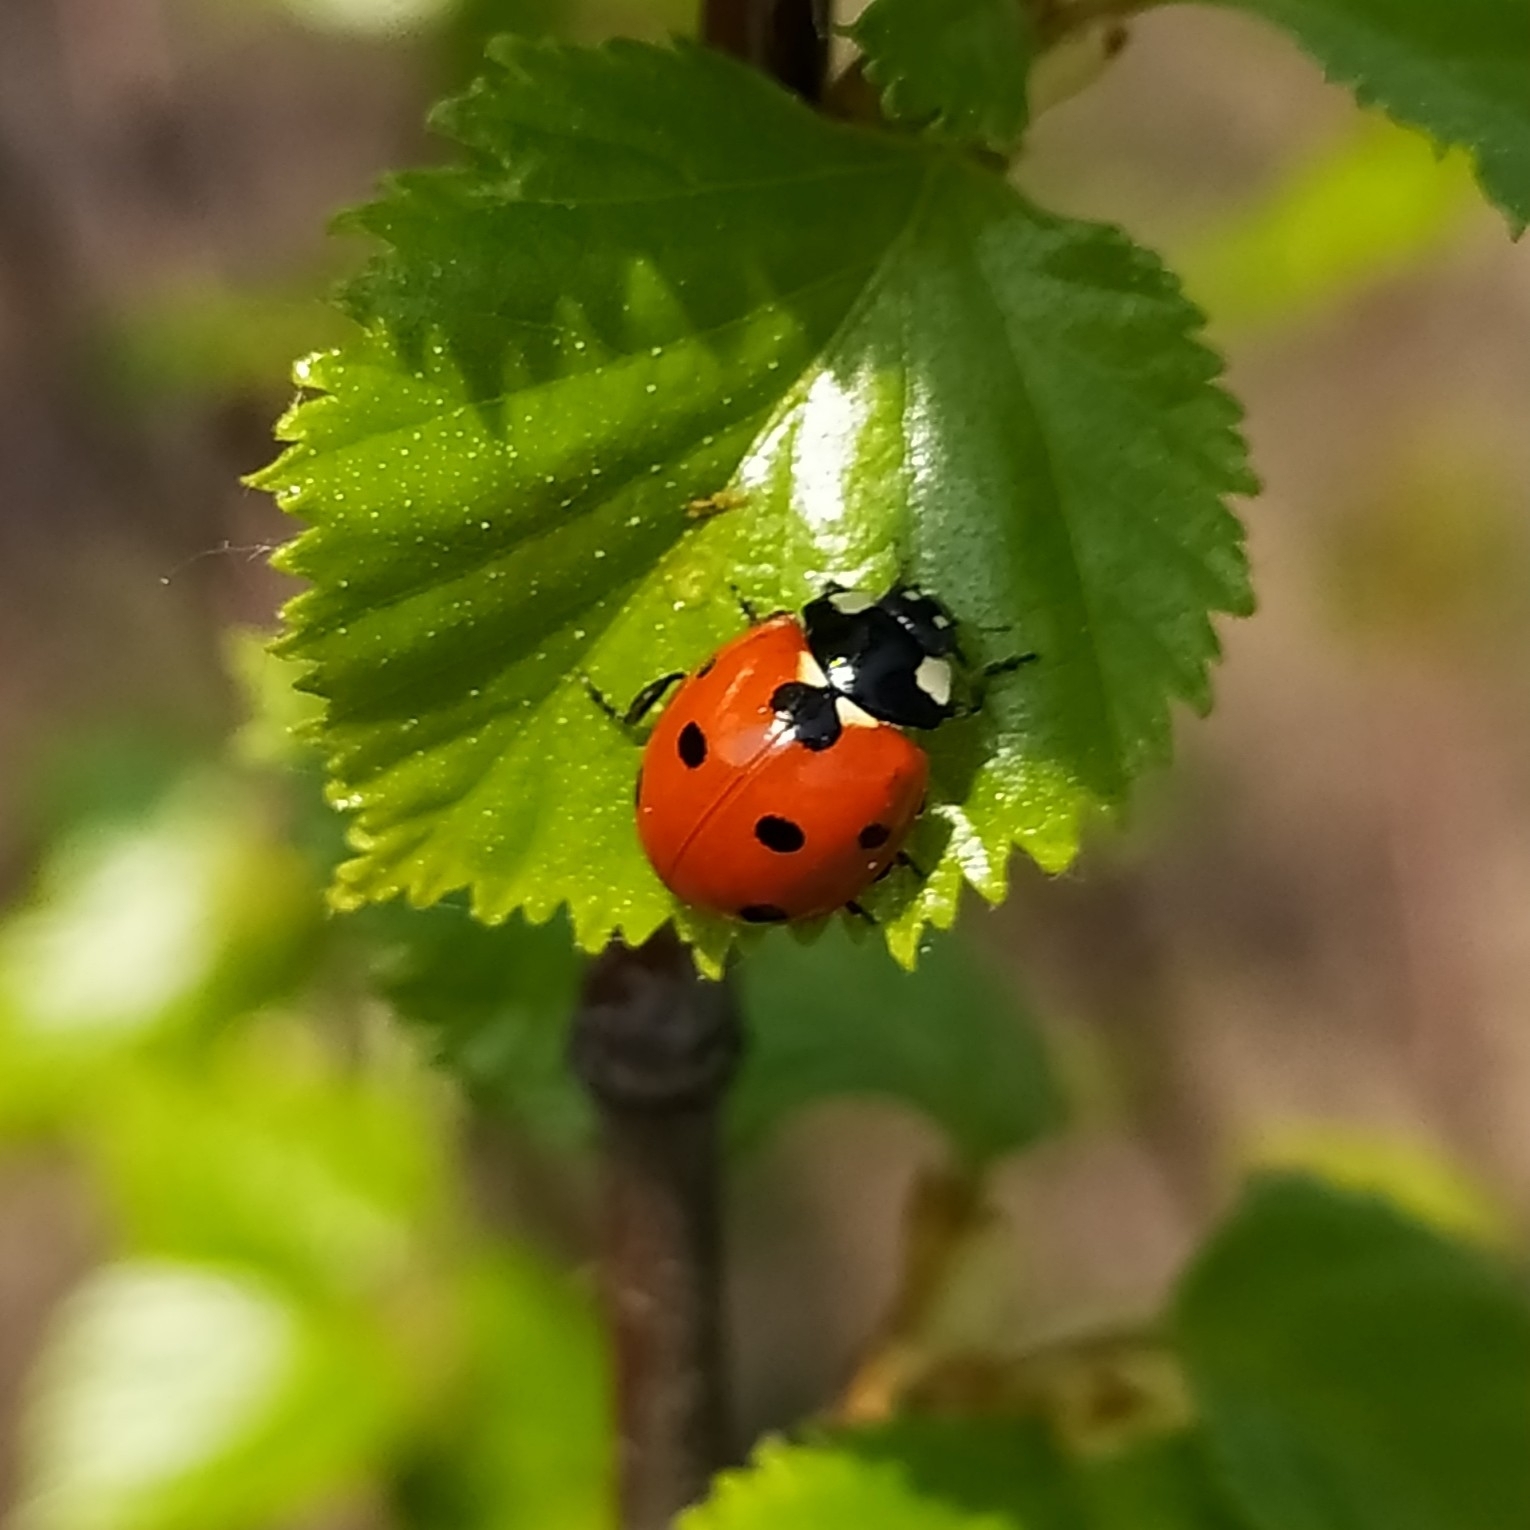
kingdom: Animalia
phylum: Arthropoda
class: Insecta
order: Coleoptera
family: Coccinellidae
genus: Coccinella
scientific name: Coccinella septempunctata
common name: Sevenspotted lady beetle
